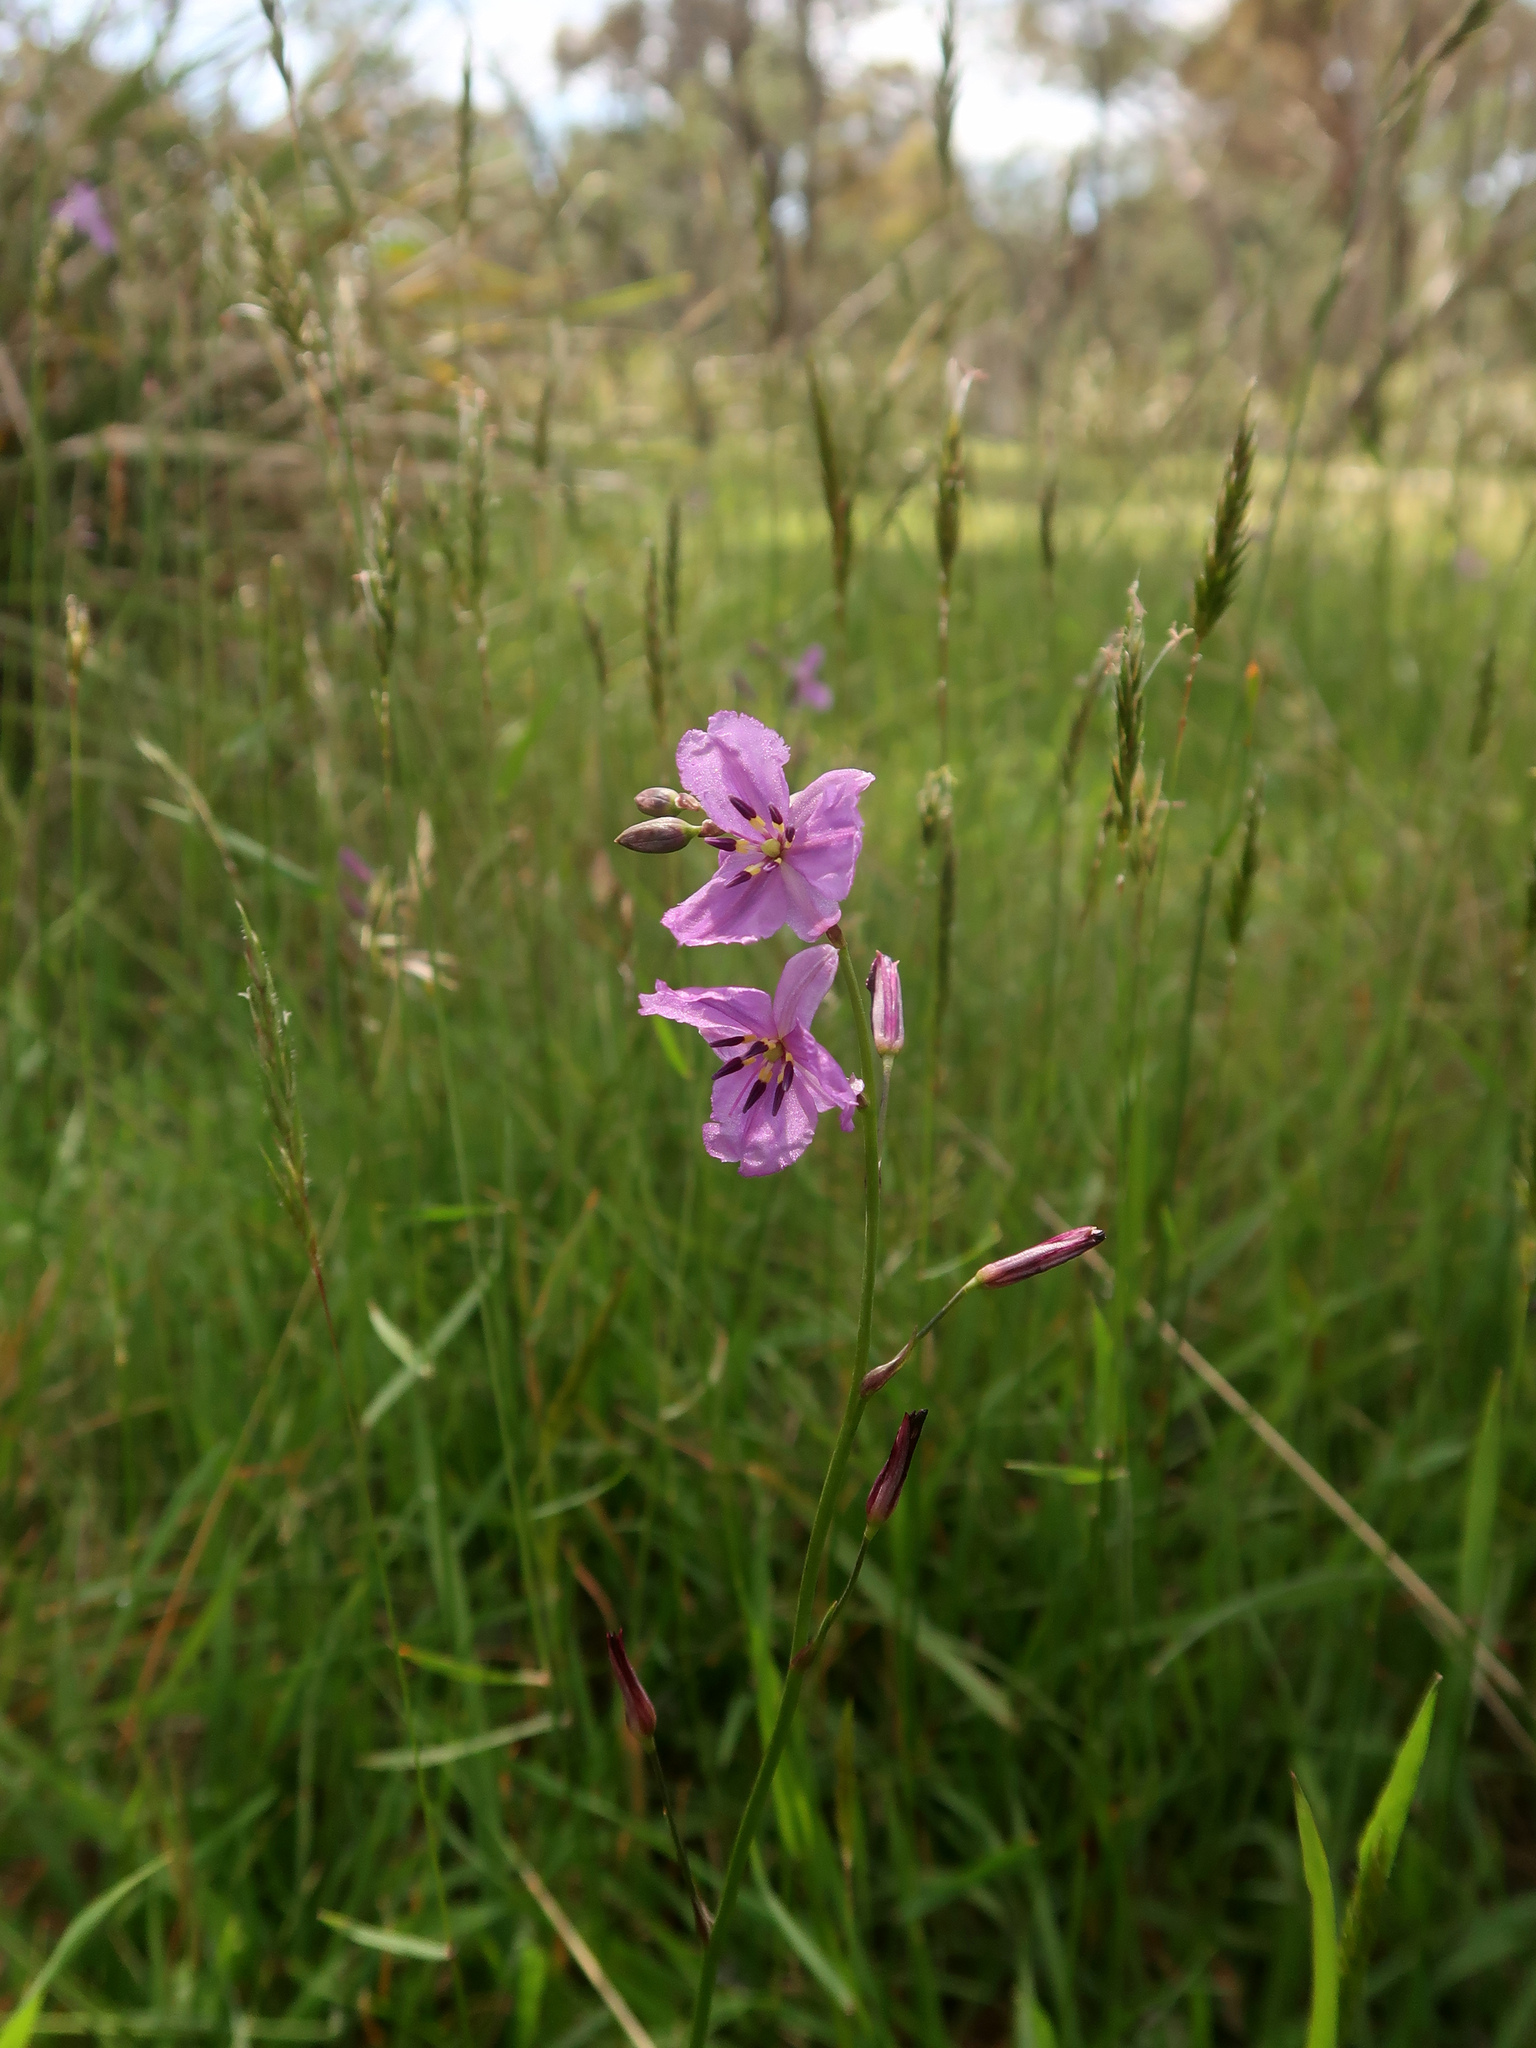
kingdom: Plantae
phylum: Tracheophyta
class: Liliopsida
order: Asparagales
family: Asparagaceae
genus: Arthropodium
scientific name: Arthropodium strictum
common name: Chocolate-lily
